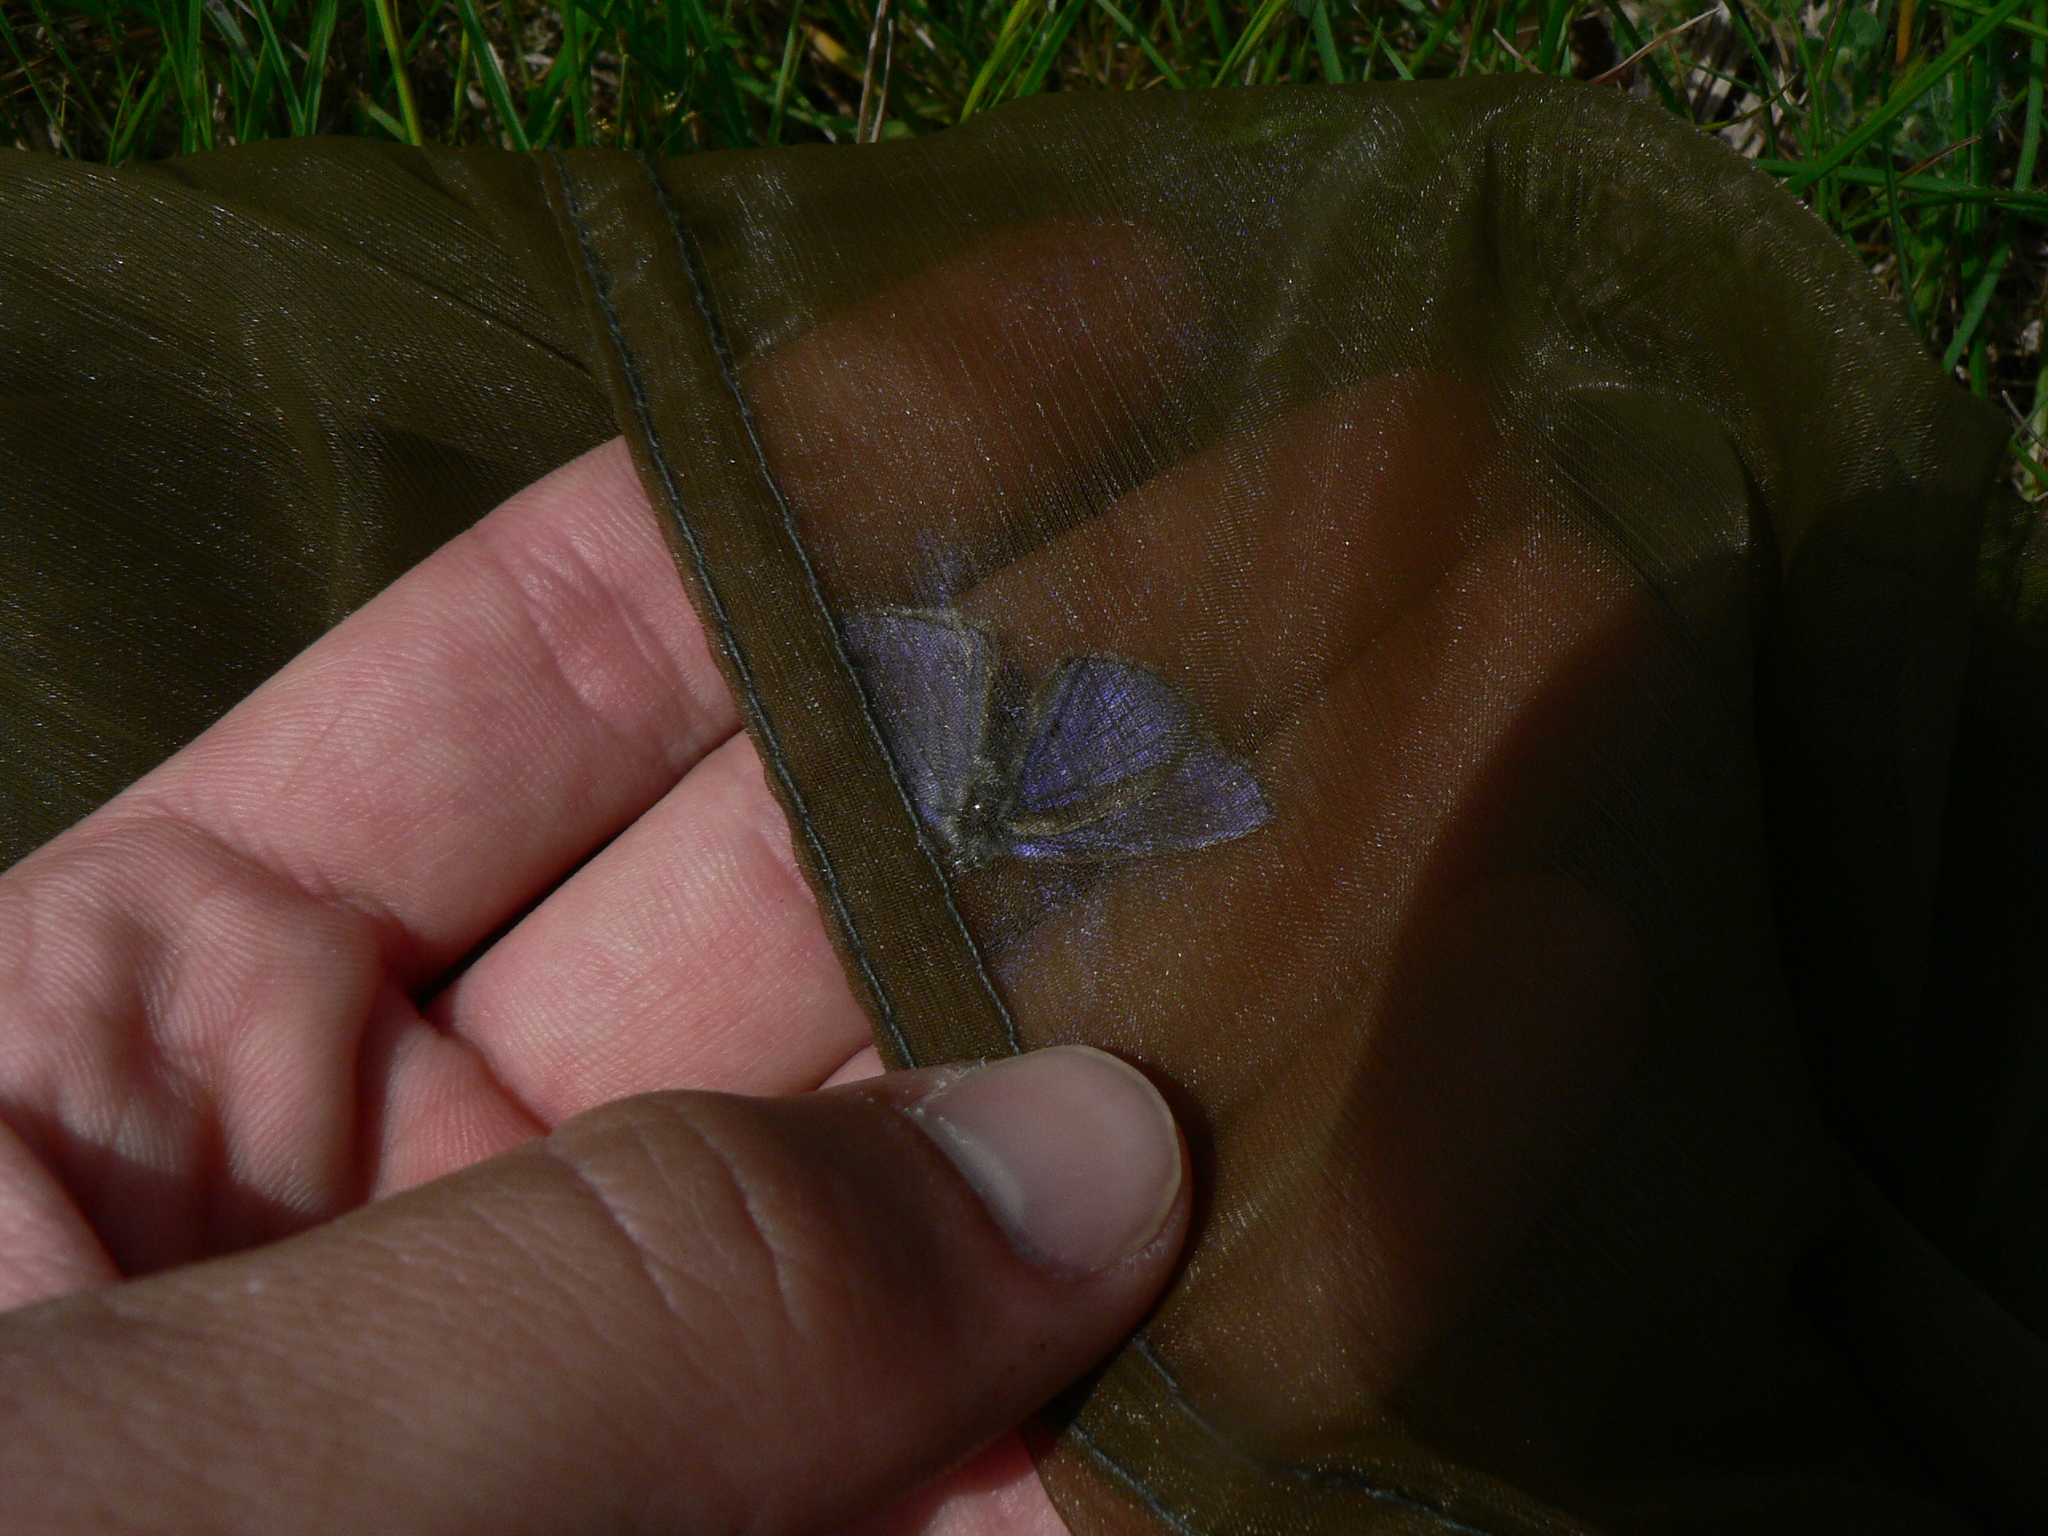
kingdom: Animalia
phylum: Arthropoda
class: Insecta
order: Lepidoptera
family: Lycaenidae
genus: Polyommatus
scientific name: Polyommatus icarus
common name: Common blue
